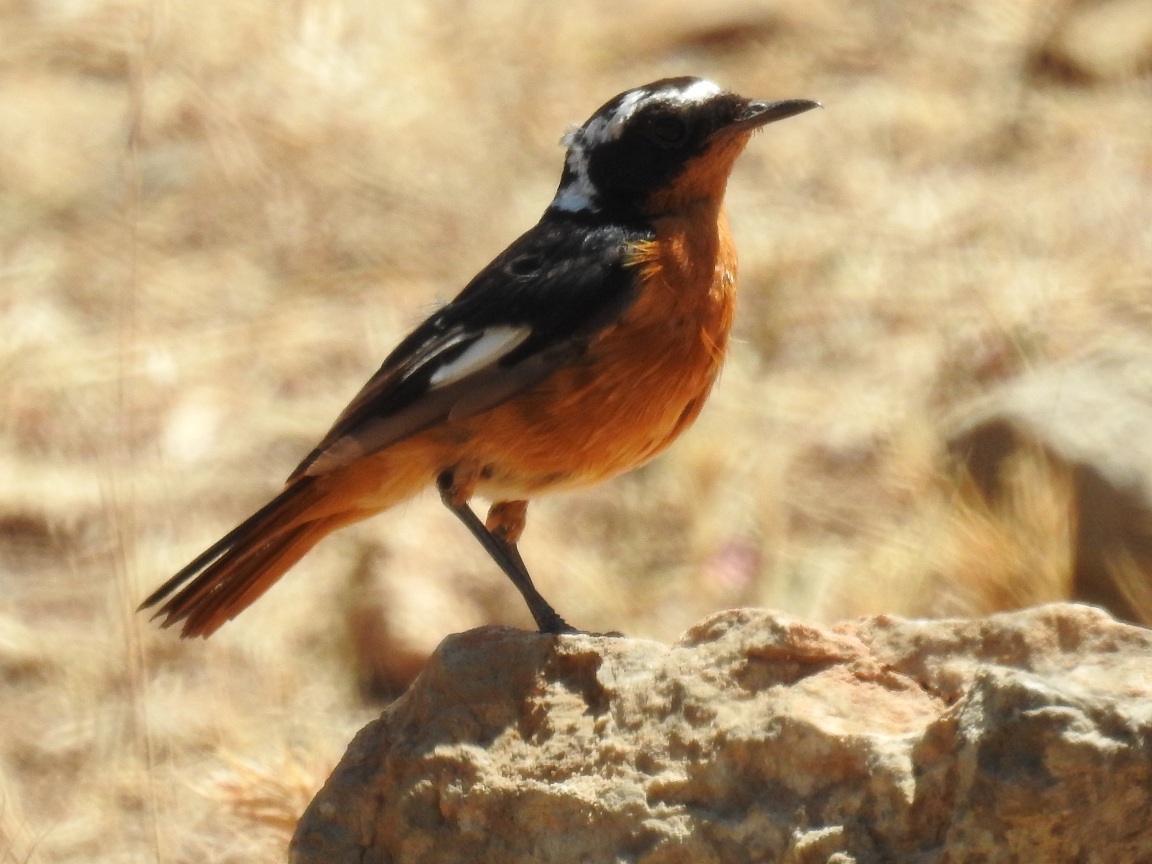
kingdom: Animalia
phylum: Chordata
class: Aves
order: Passeriformes
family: Muscicapidae
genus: Phoenicurus
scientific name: Phoenicurus moussieri
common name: Moussier's redstart
